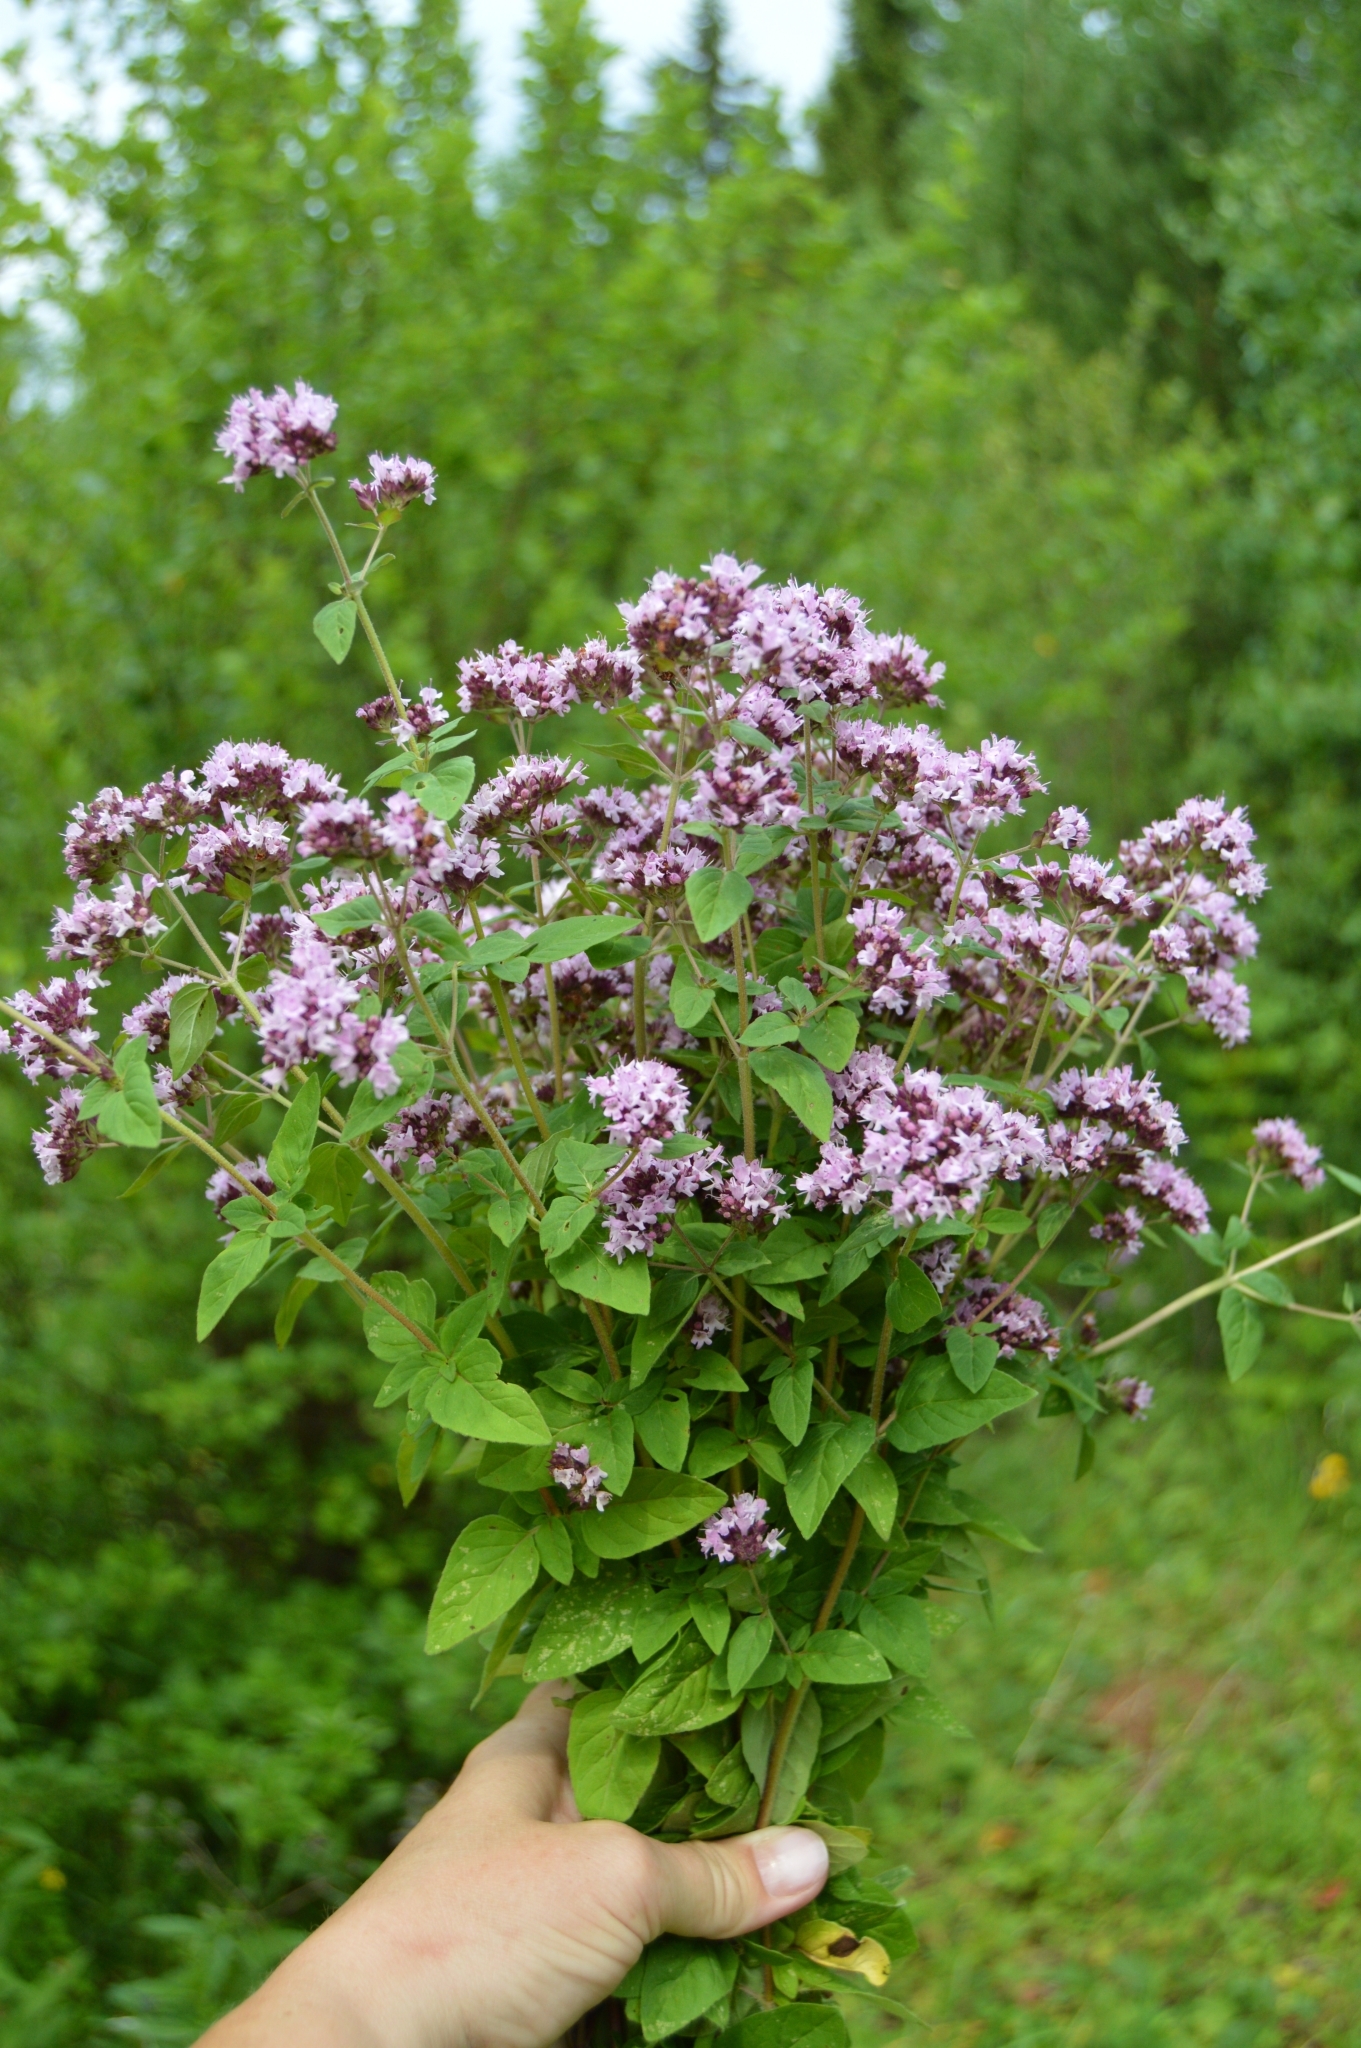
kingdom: Plantae
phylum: Tracheophyta
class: Magnoliopsida
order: Lamiales
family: Lamiaceae
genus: Origanum
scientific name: Origanum vulgare
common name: Wild marjoram
